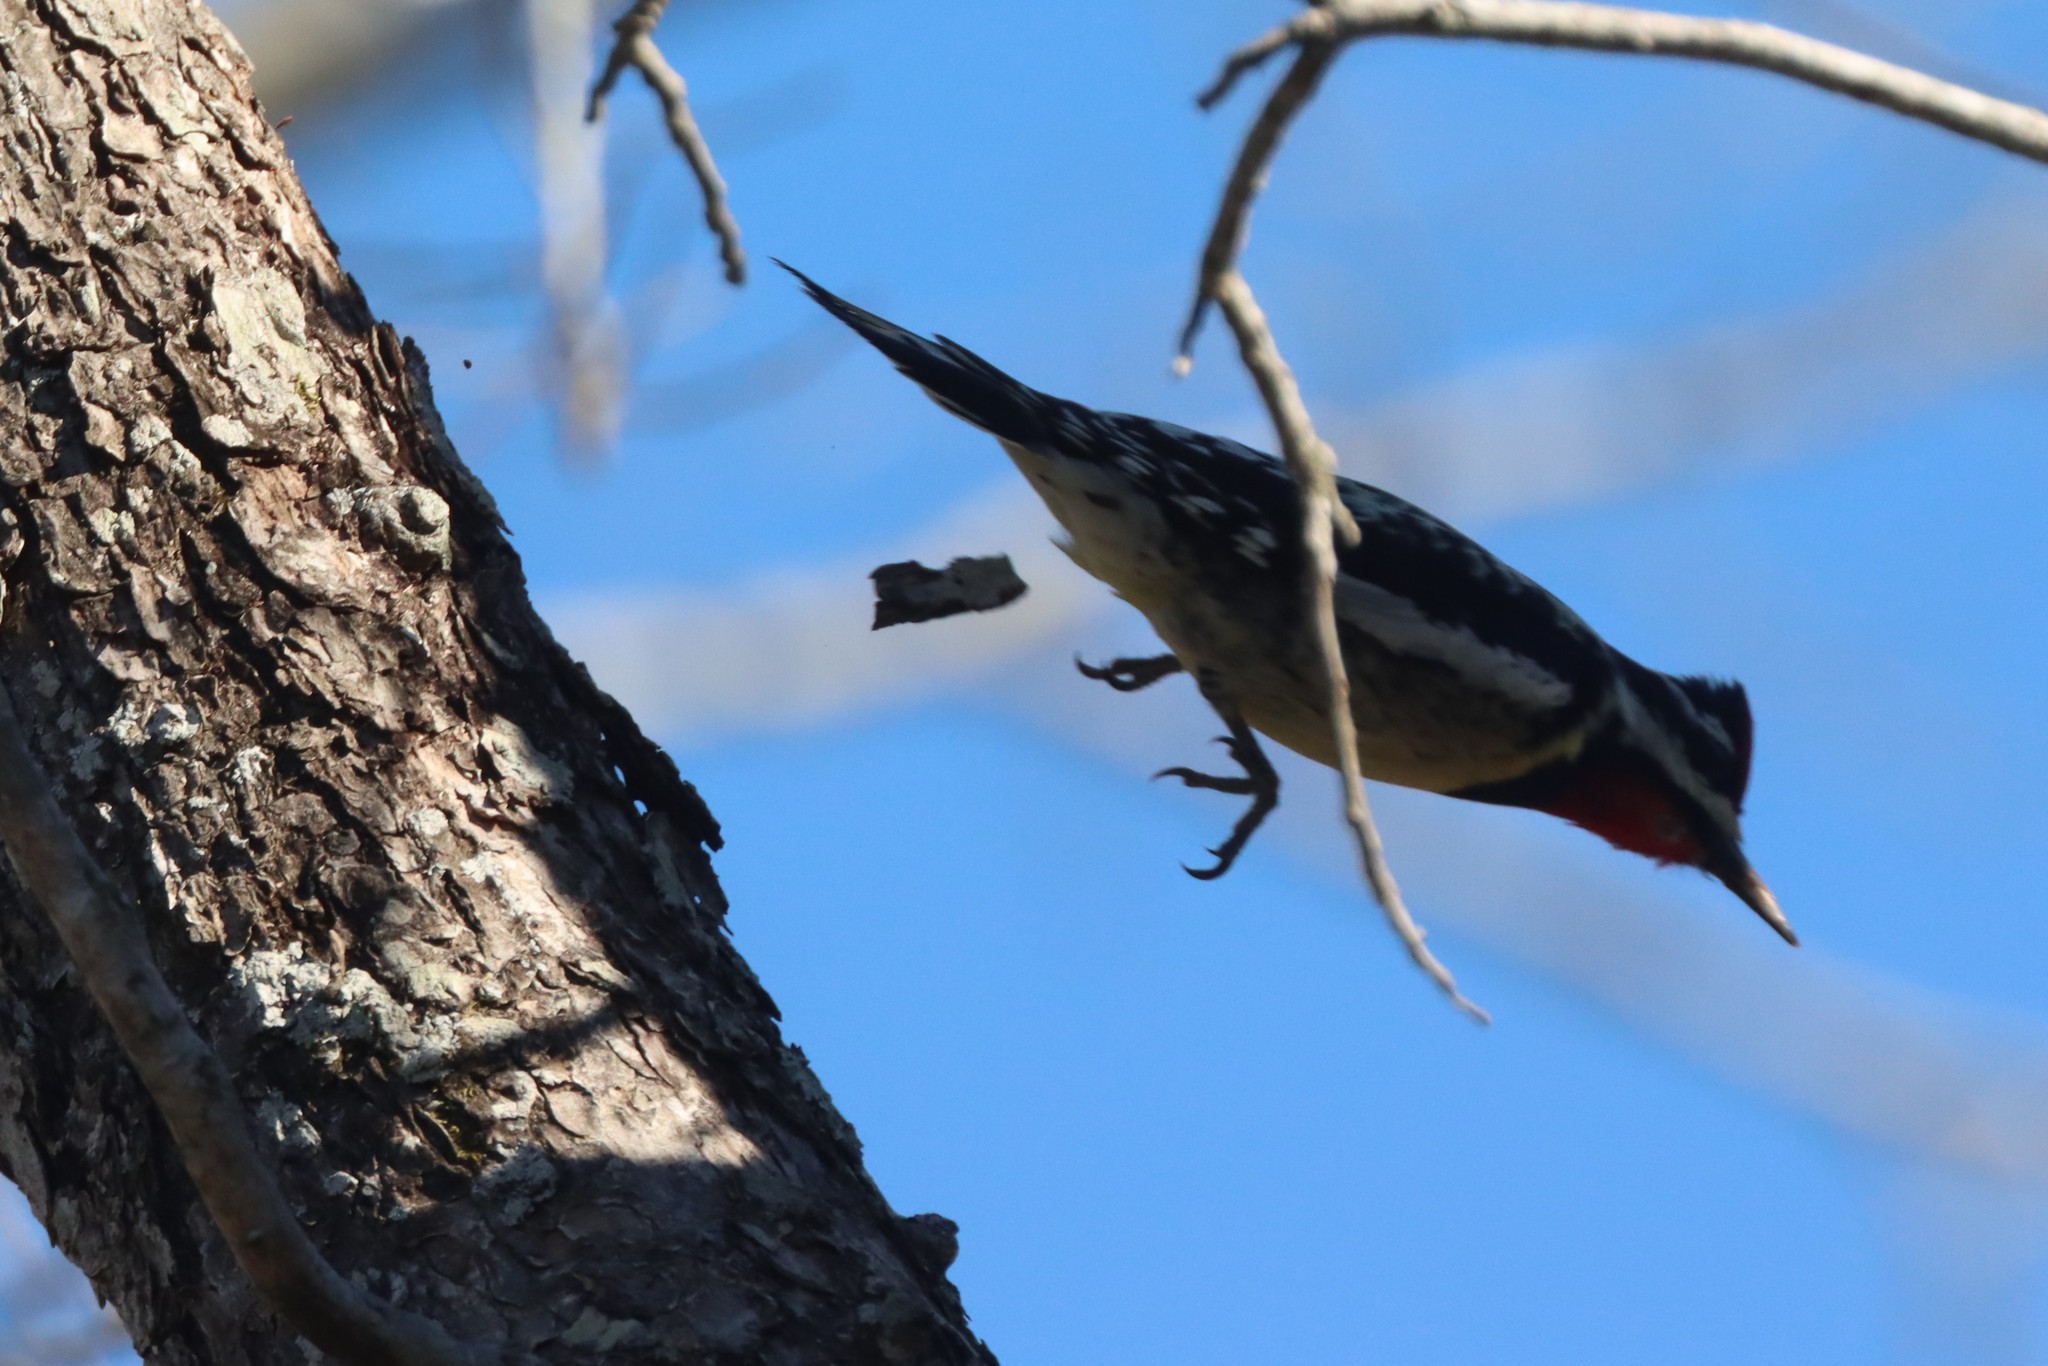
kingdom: Animalia
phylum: Chordata
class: Aves
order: Piciformes
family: Picidae
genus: Sphyrapicus
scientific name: Sphyrapicus varius
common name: Yellow-bellied sapsucker
